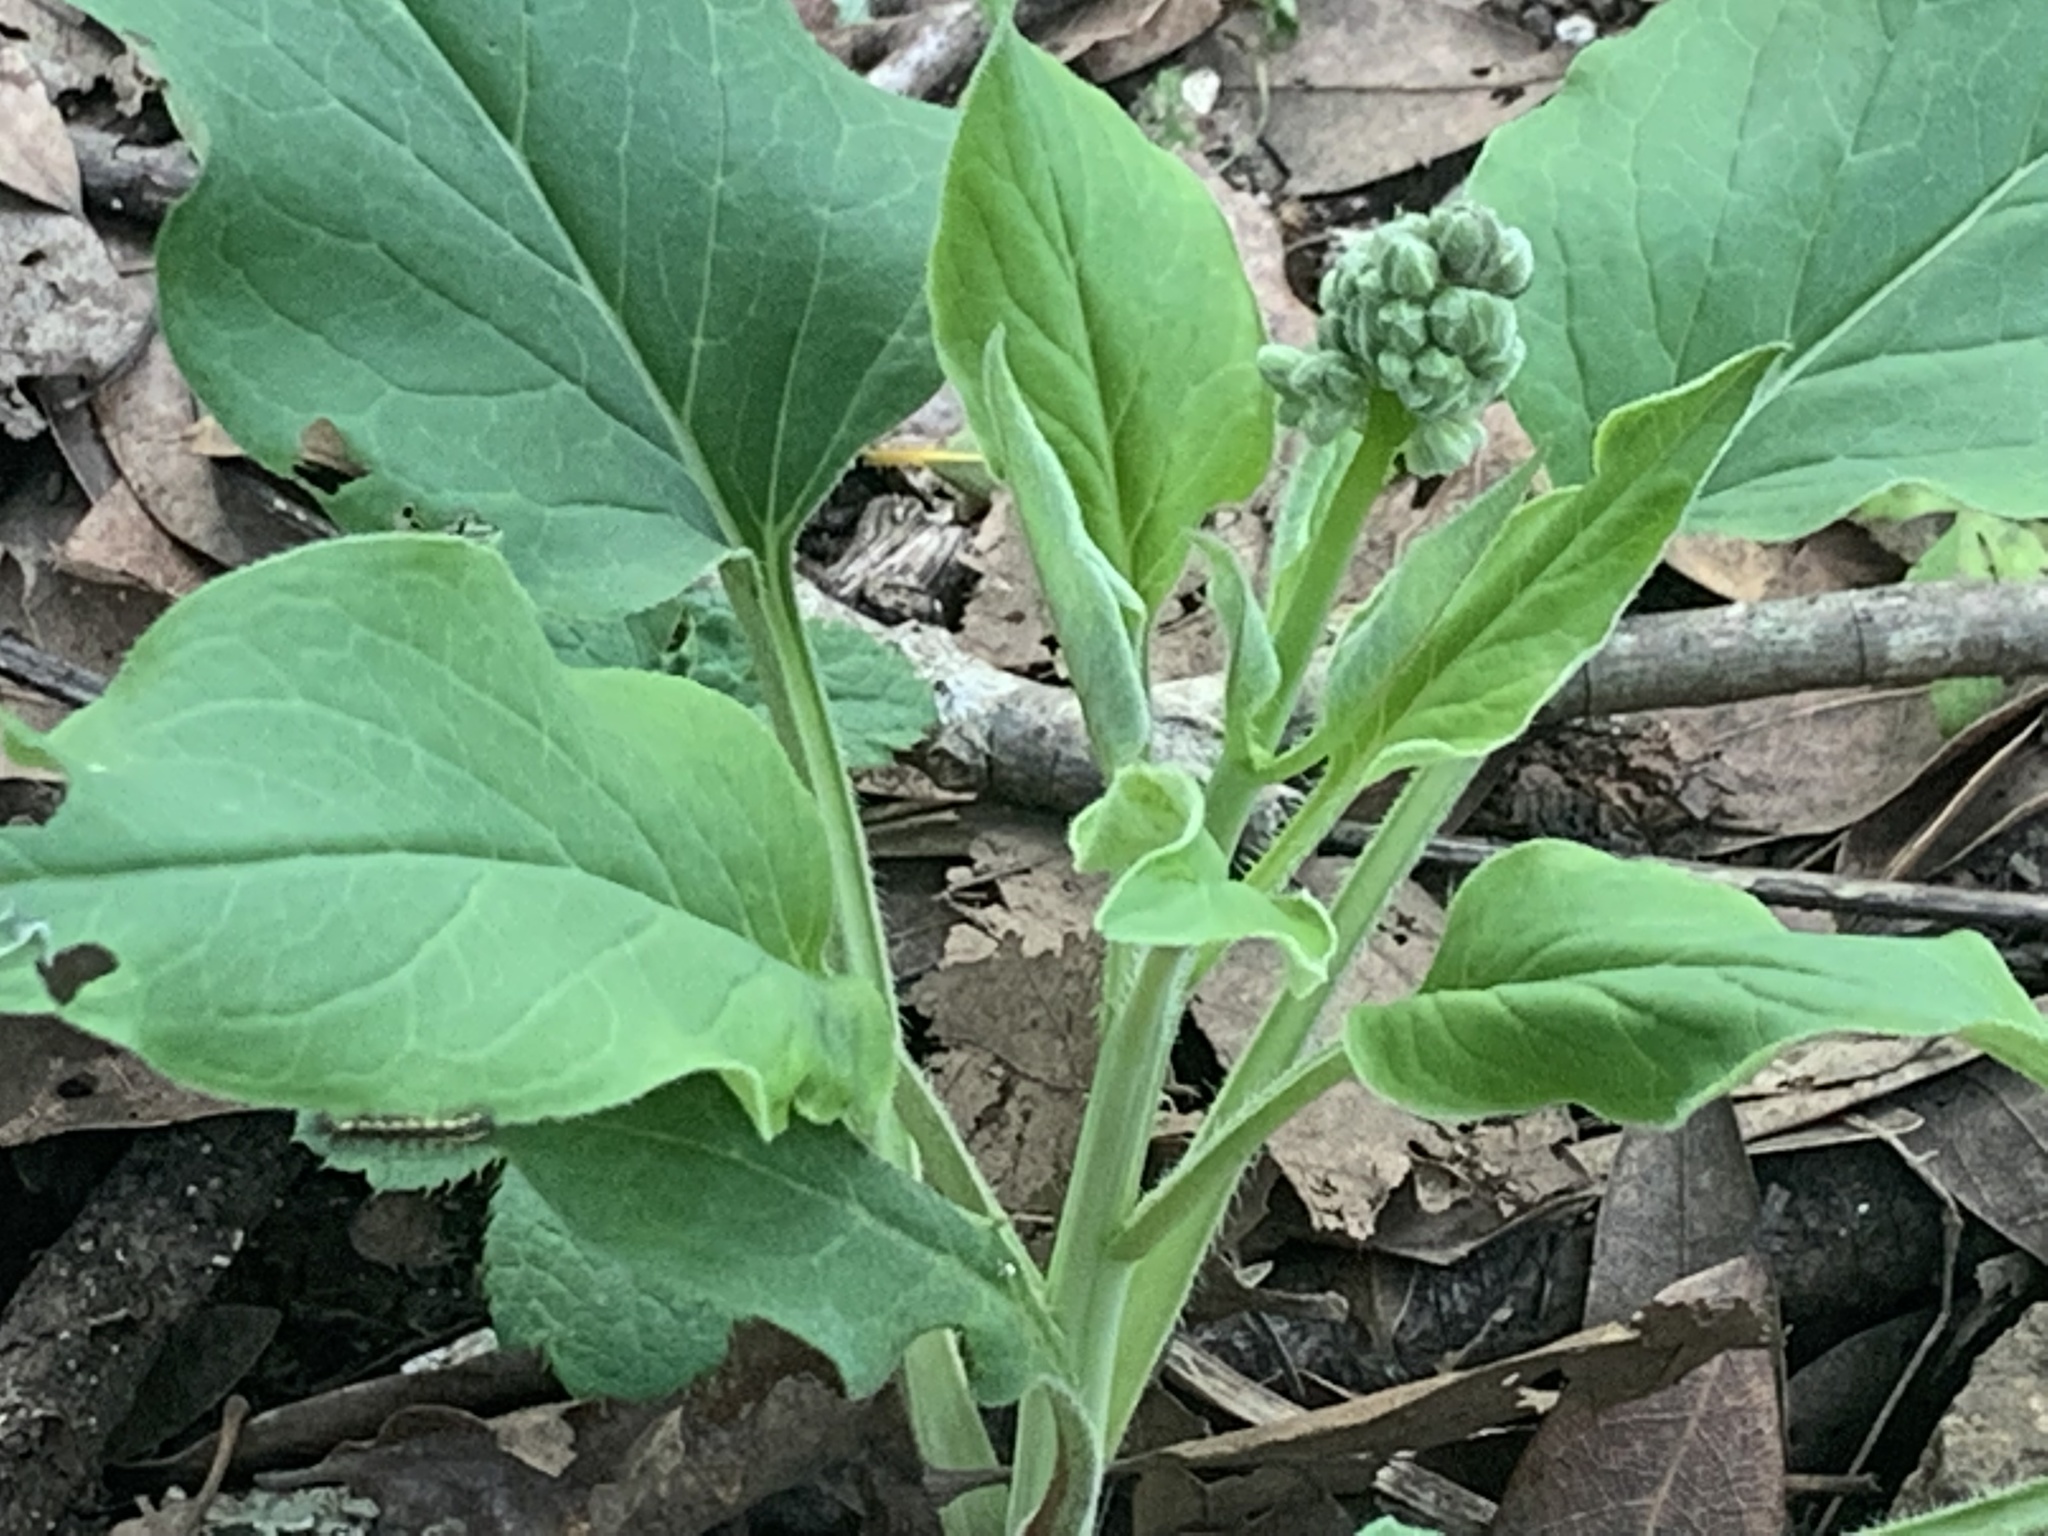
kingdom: Animalia
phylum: Arthropoda
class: Insecta
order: Lepidoptera
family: Erebidae
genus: Gnophaela
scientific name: Gnophaela latipennis
